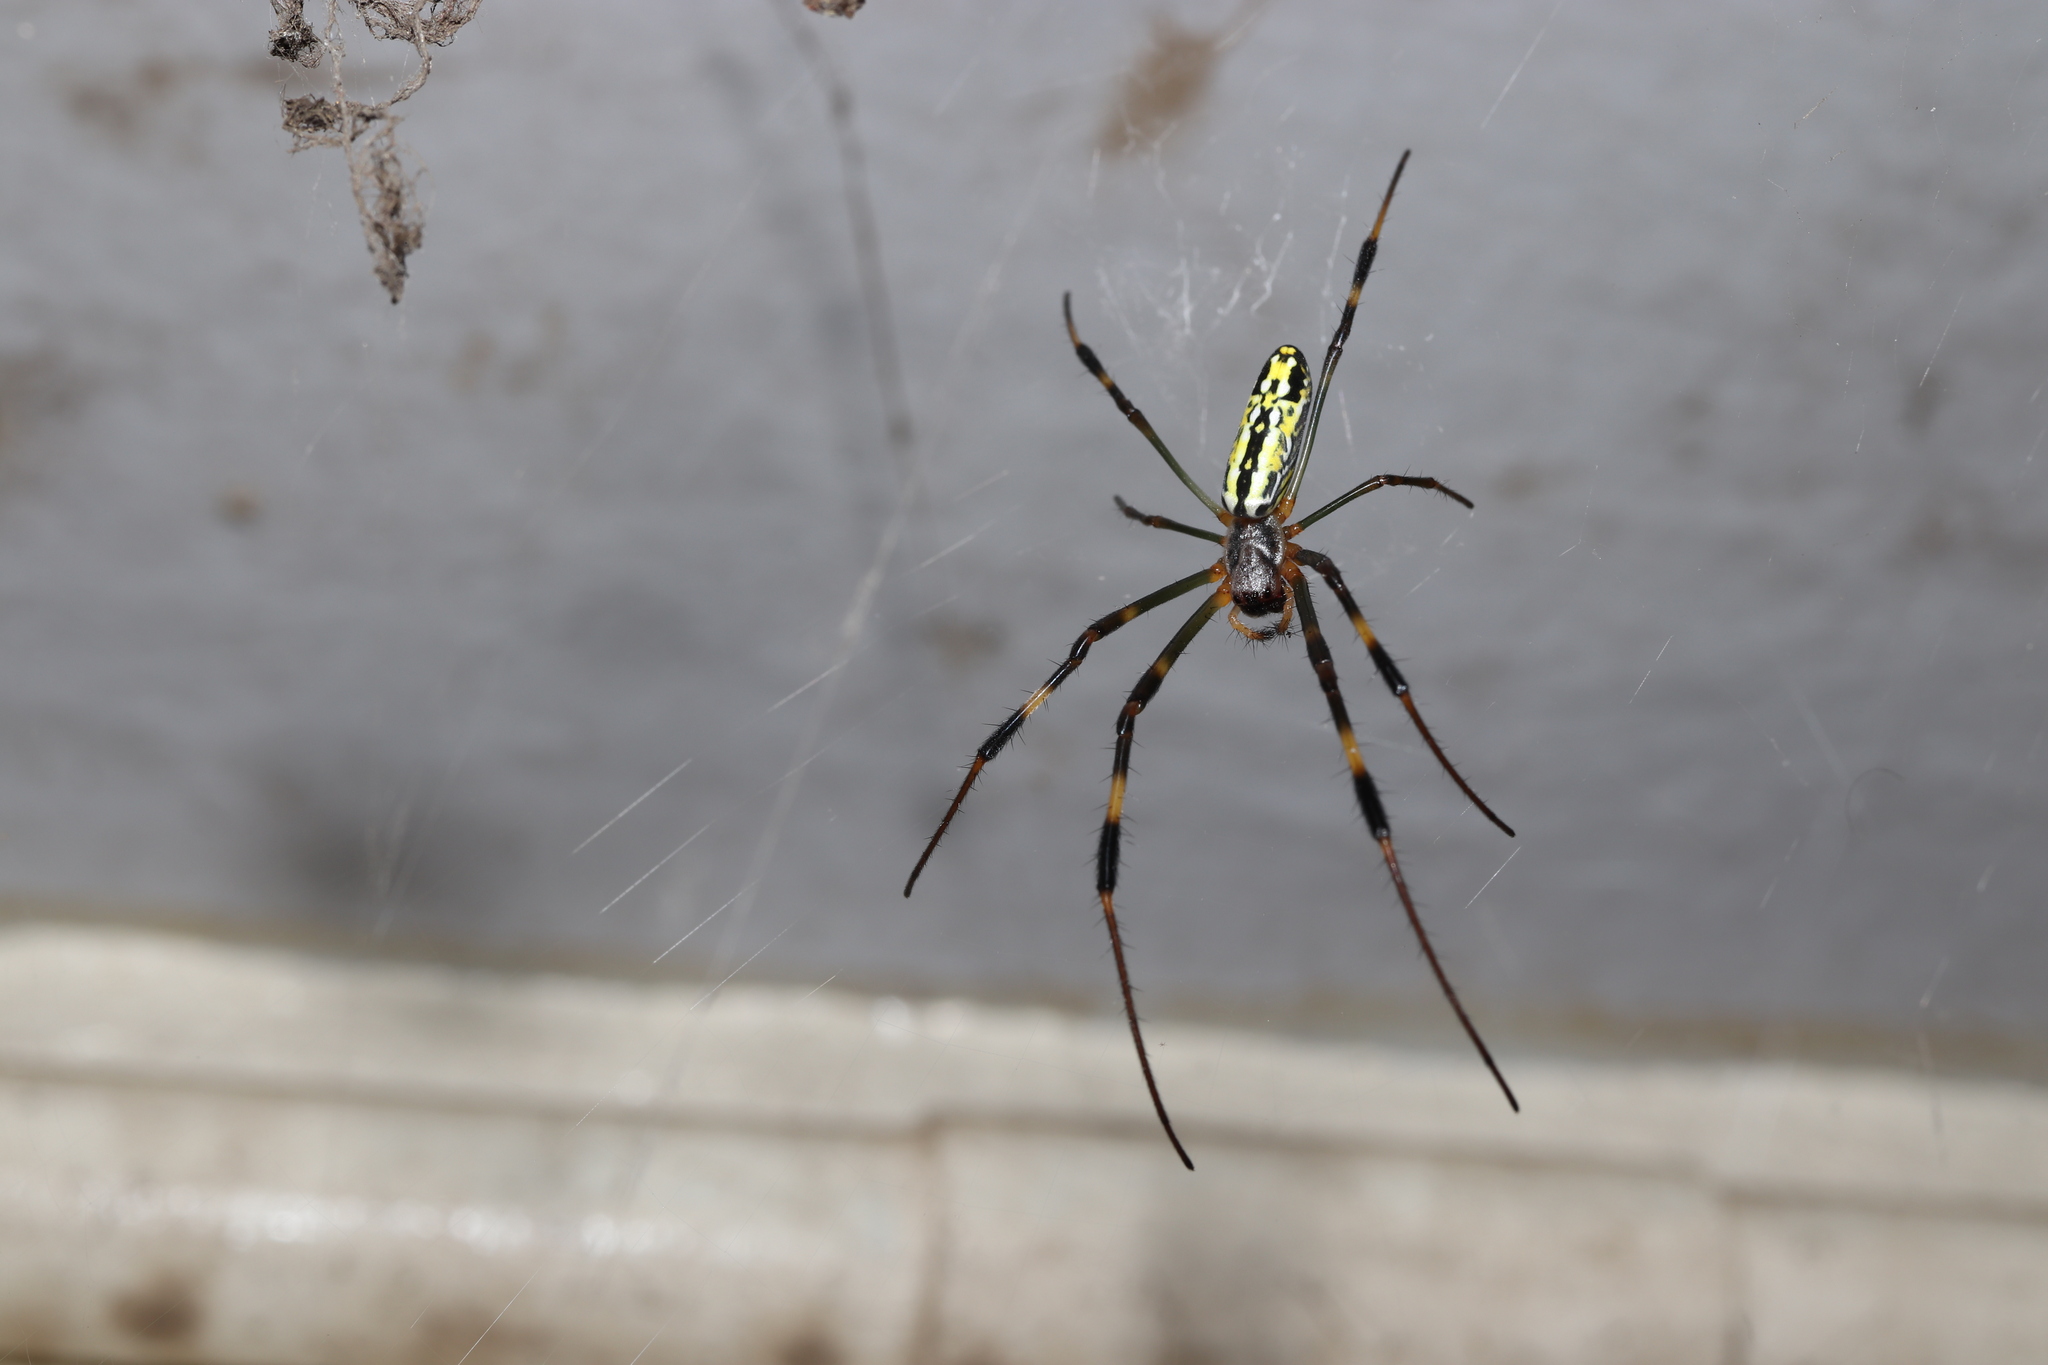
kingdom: Animalia
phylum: Arthropoda
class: Arachnida
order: Araneae
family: Araneidae
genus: Trichonephila
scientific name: Trichonephila clavata
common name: Jorō spider
